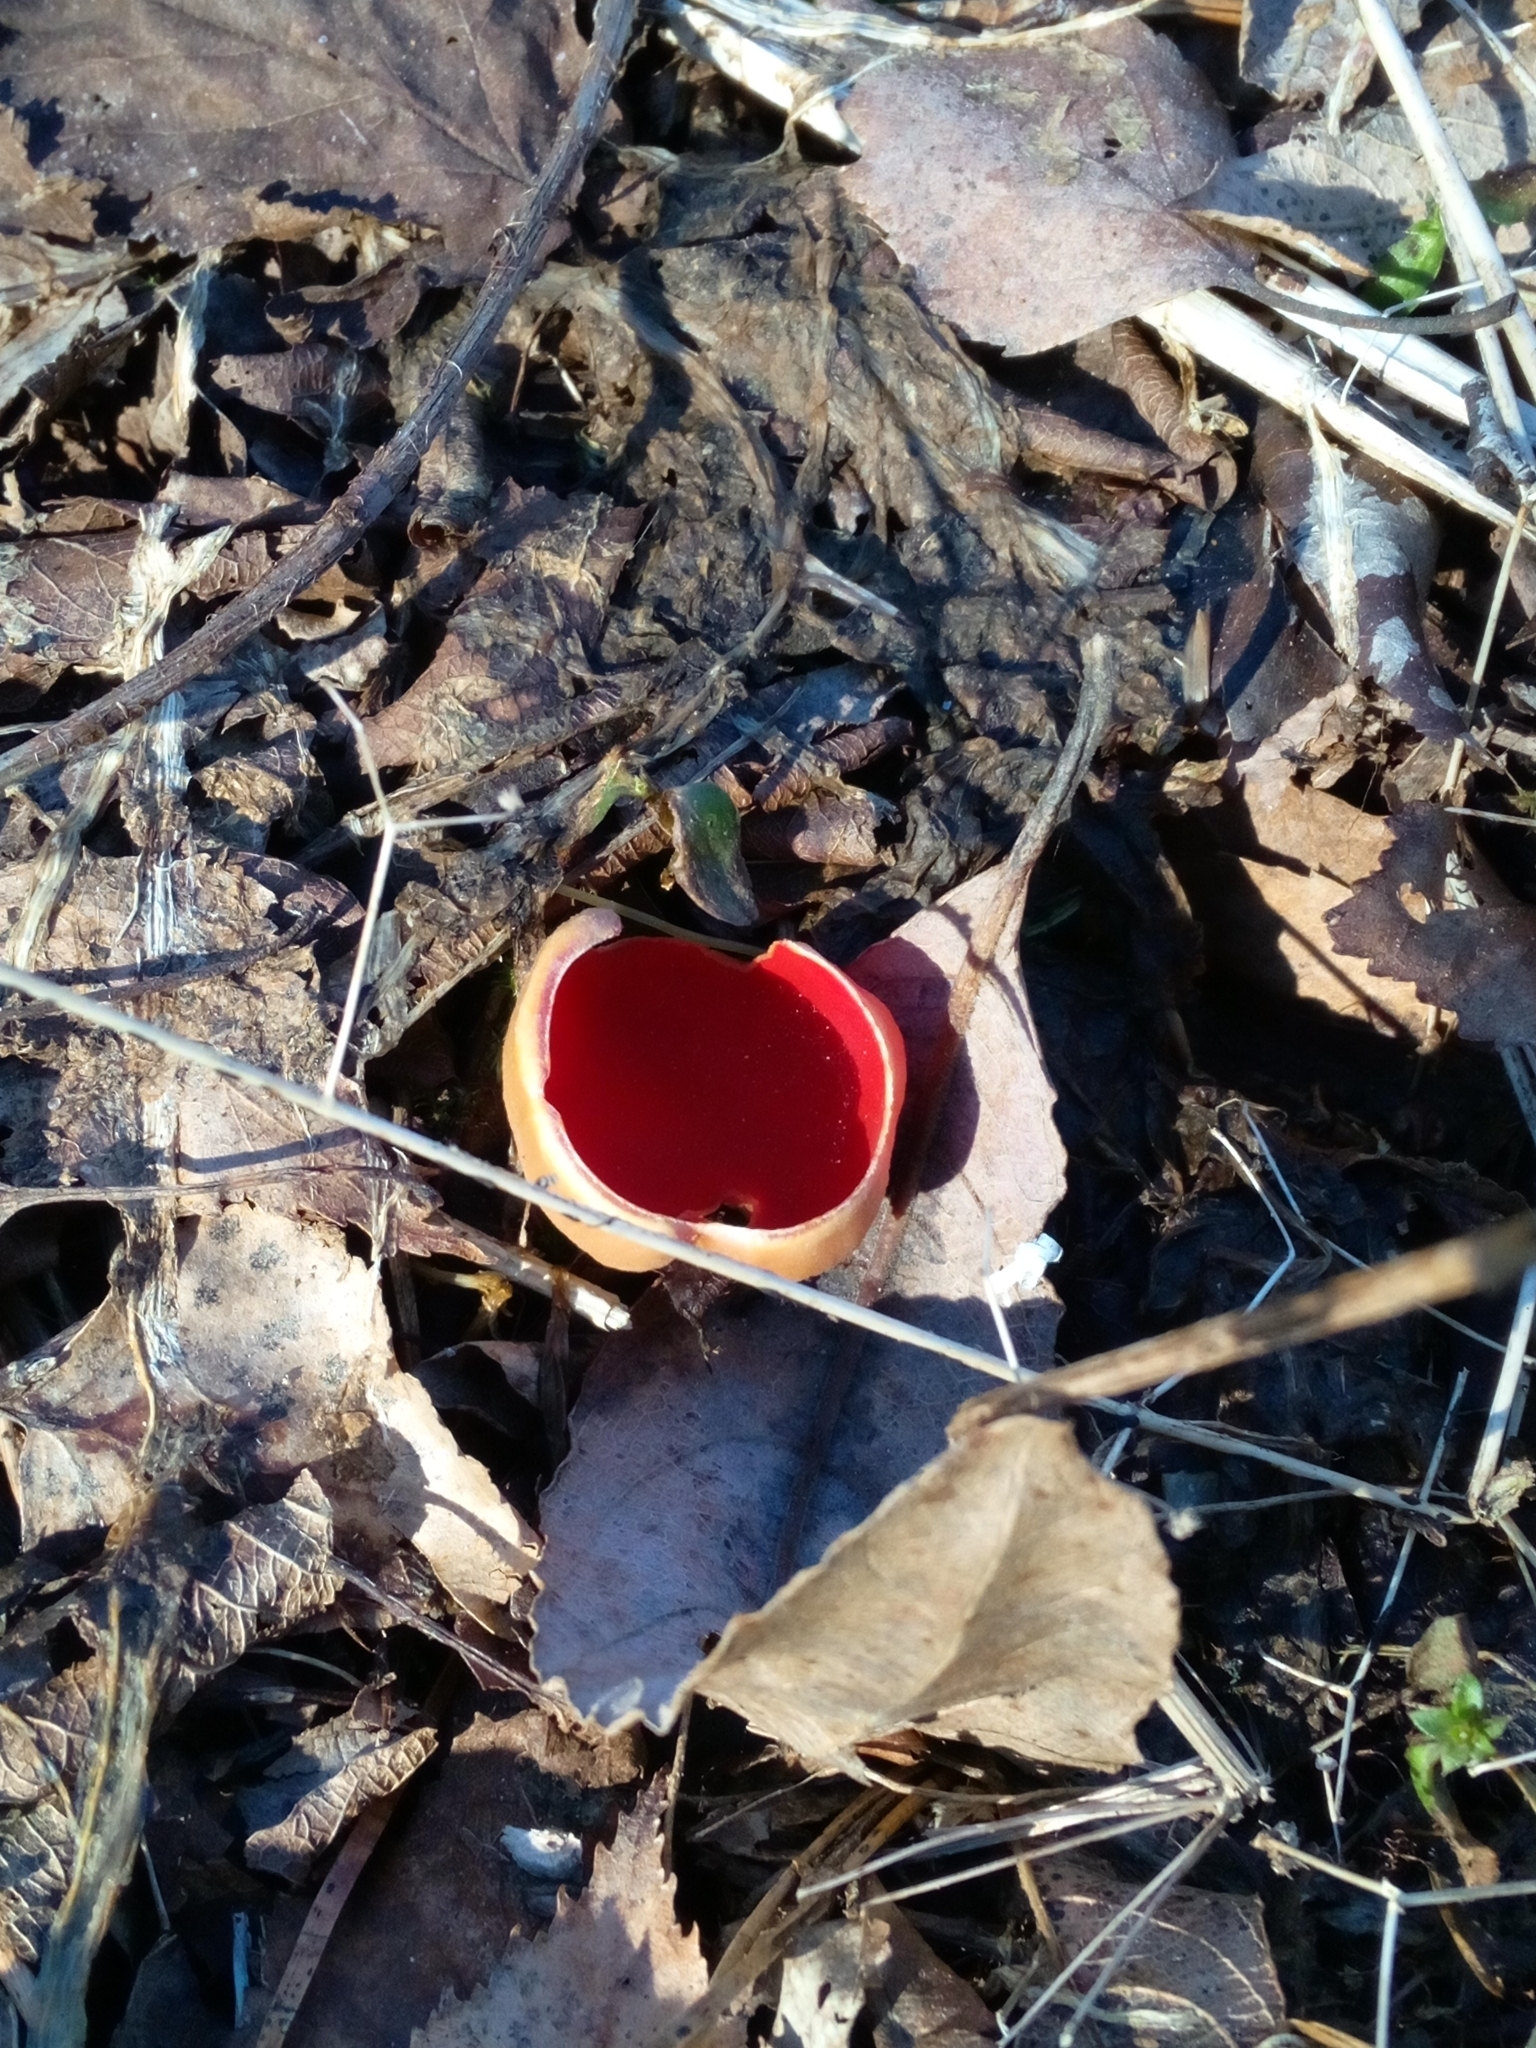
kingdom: Fungi
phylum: Ascomycota
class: Pezizomycetes
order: Pezizales
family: Sarcoscyphaceae
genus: Sarcoscypha
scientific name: Sarcoscypha
